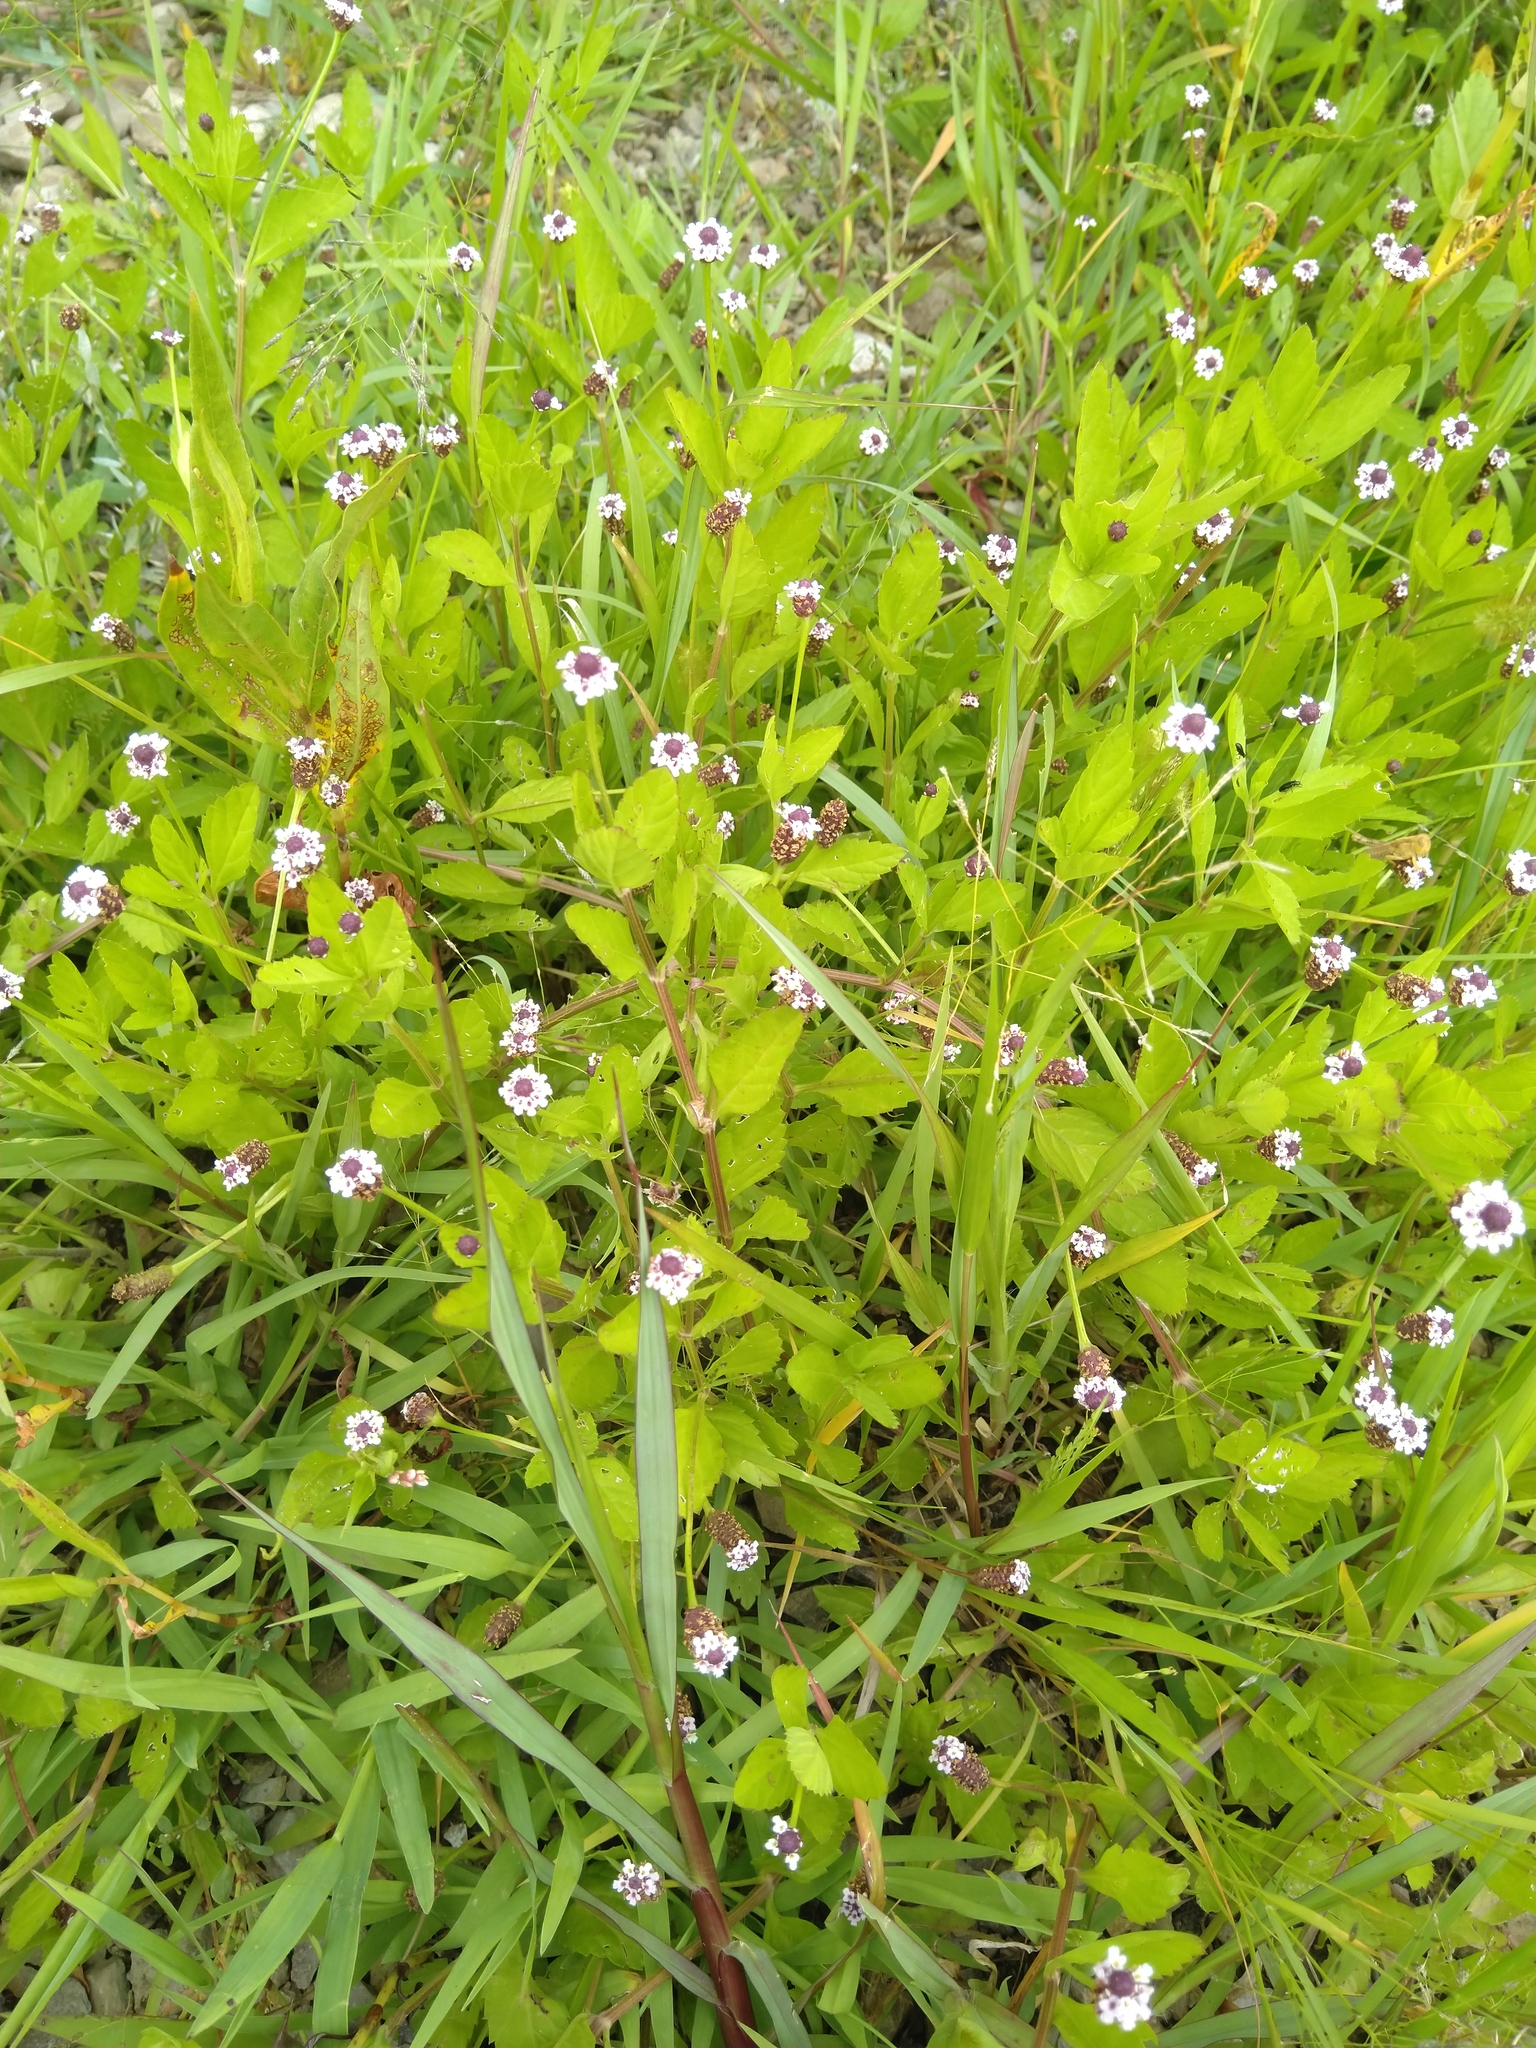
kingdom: Plantae
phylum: Tracheophyta
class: Magnoliopsida
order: Lamiales
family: Verbenaceae
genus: Phyla
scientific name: Phyla lanceolata
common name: Northern fogfruit
